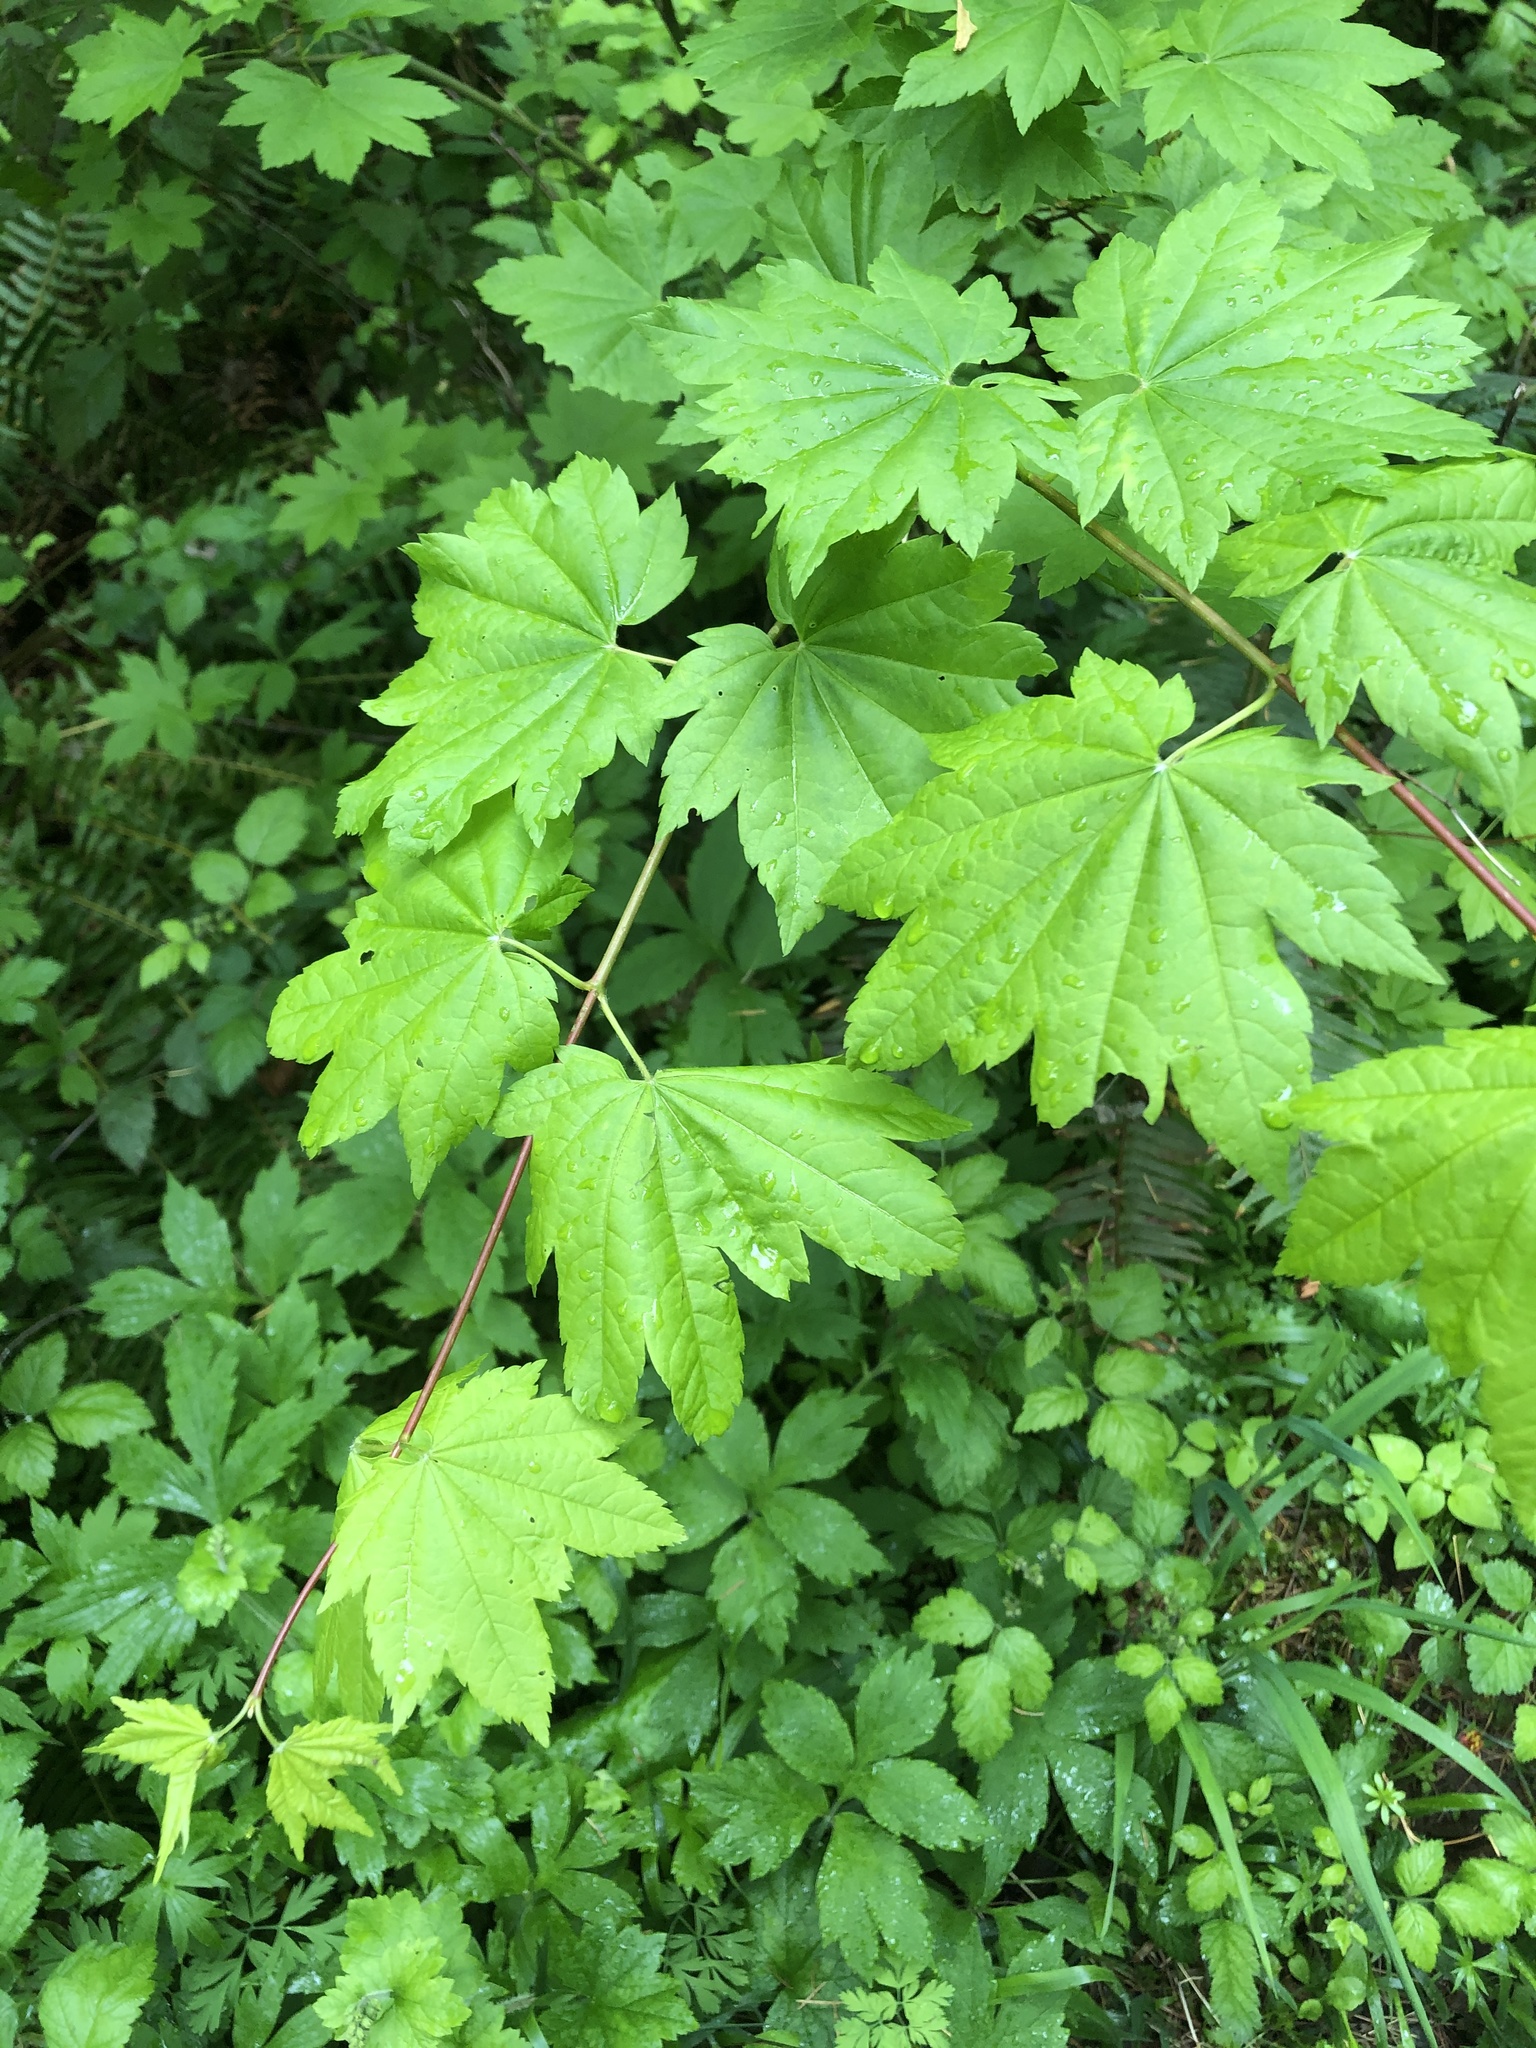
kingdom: Plantae
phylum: Tracheophyta
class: Magnoliopsida
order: Sapindales
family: Sapindaceae
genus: Acer
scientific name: Acer circinatum
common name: Vine maple
